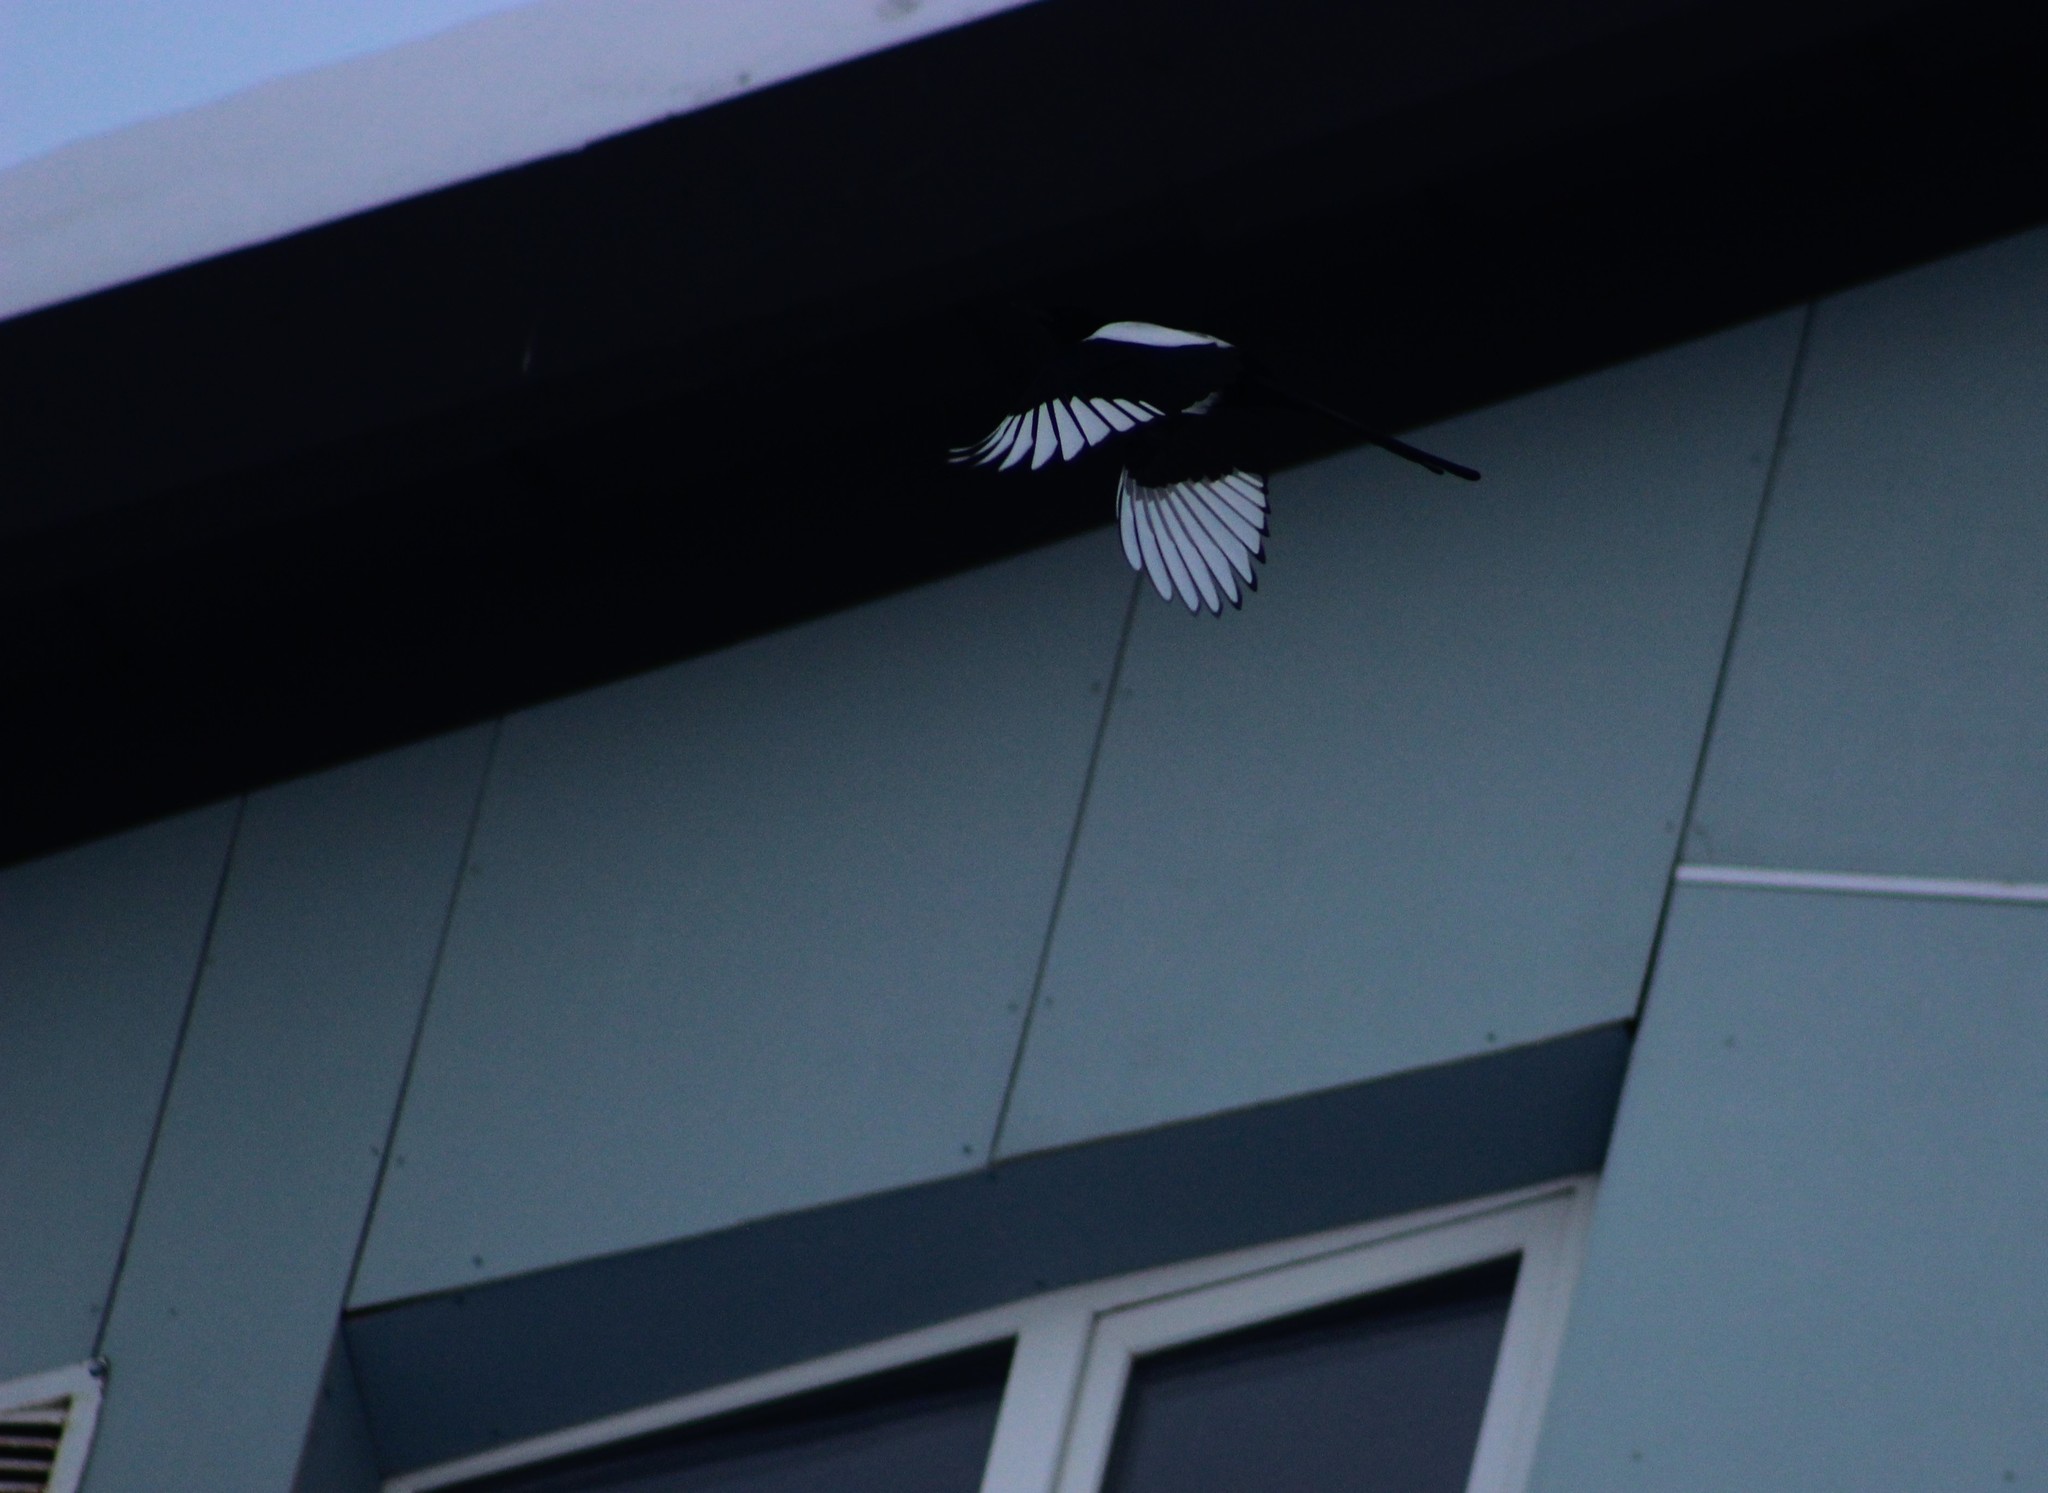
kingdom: Animalia
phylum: Chordata
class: Aves
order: Passeriformes
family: Corvidae
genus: Pica
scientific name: Pica pica
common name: Eurasian magpie
